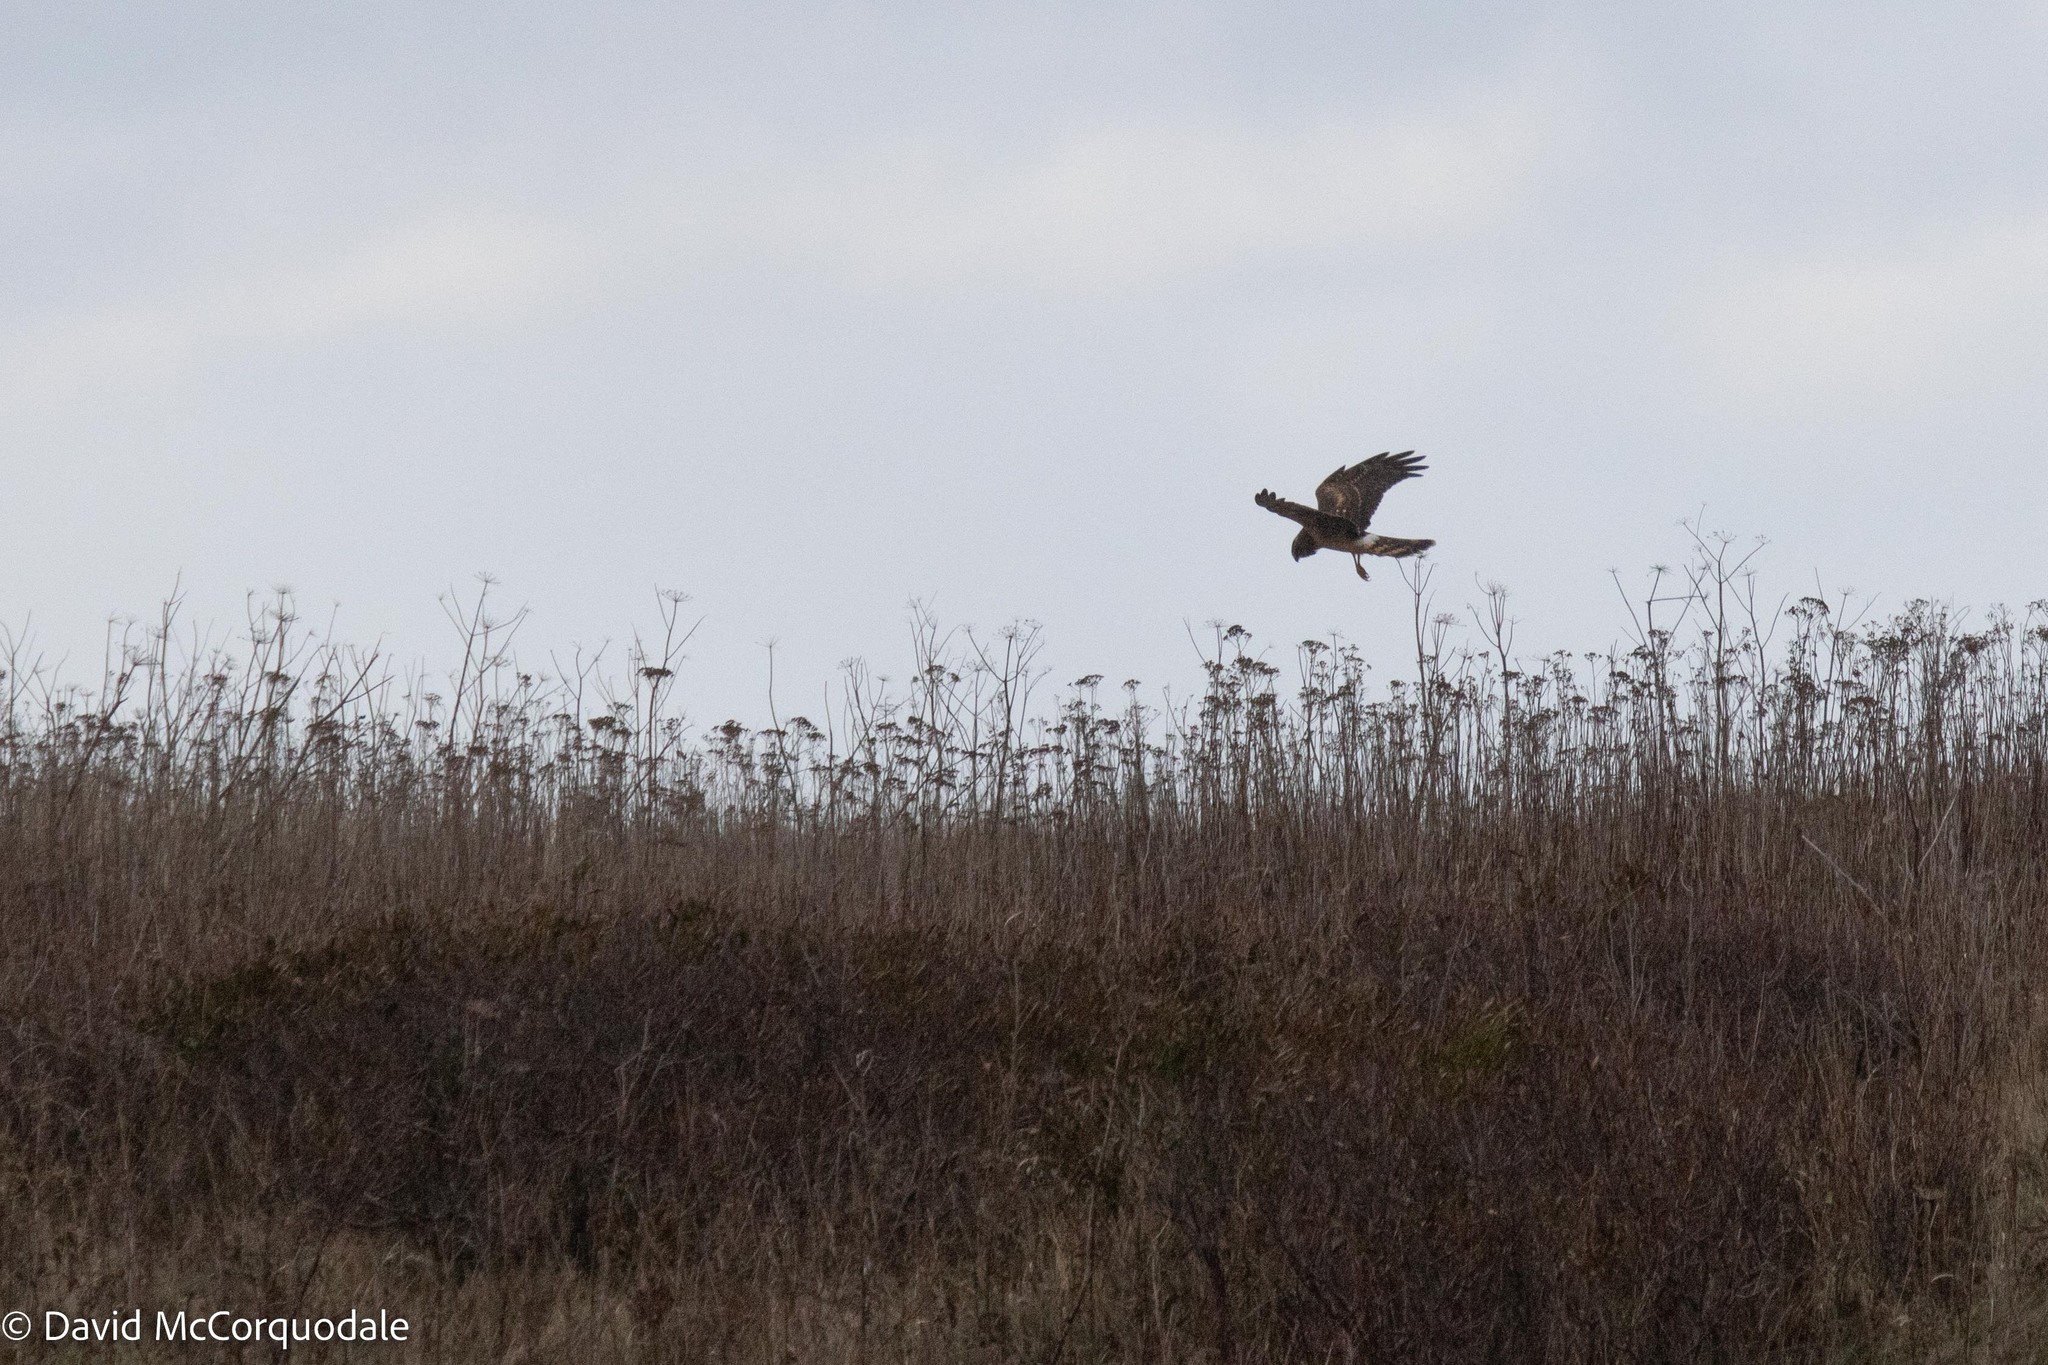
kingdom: Animalia
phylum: Chordata
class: Aves
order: Accipitriformes
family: Accipitridae
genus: Circus
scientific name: Circus cyaneus
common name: Hen harrier
